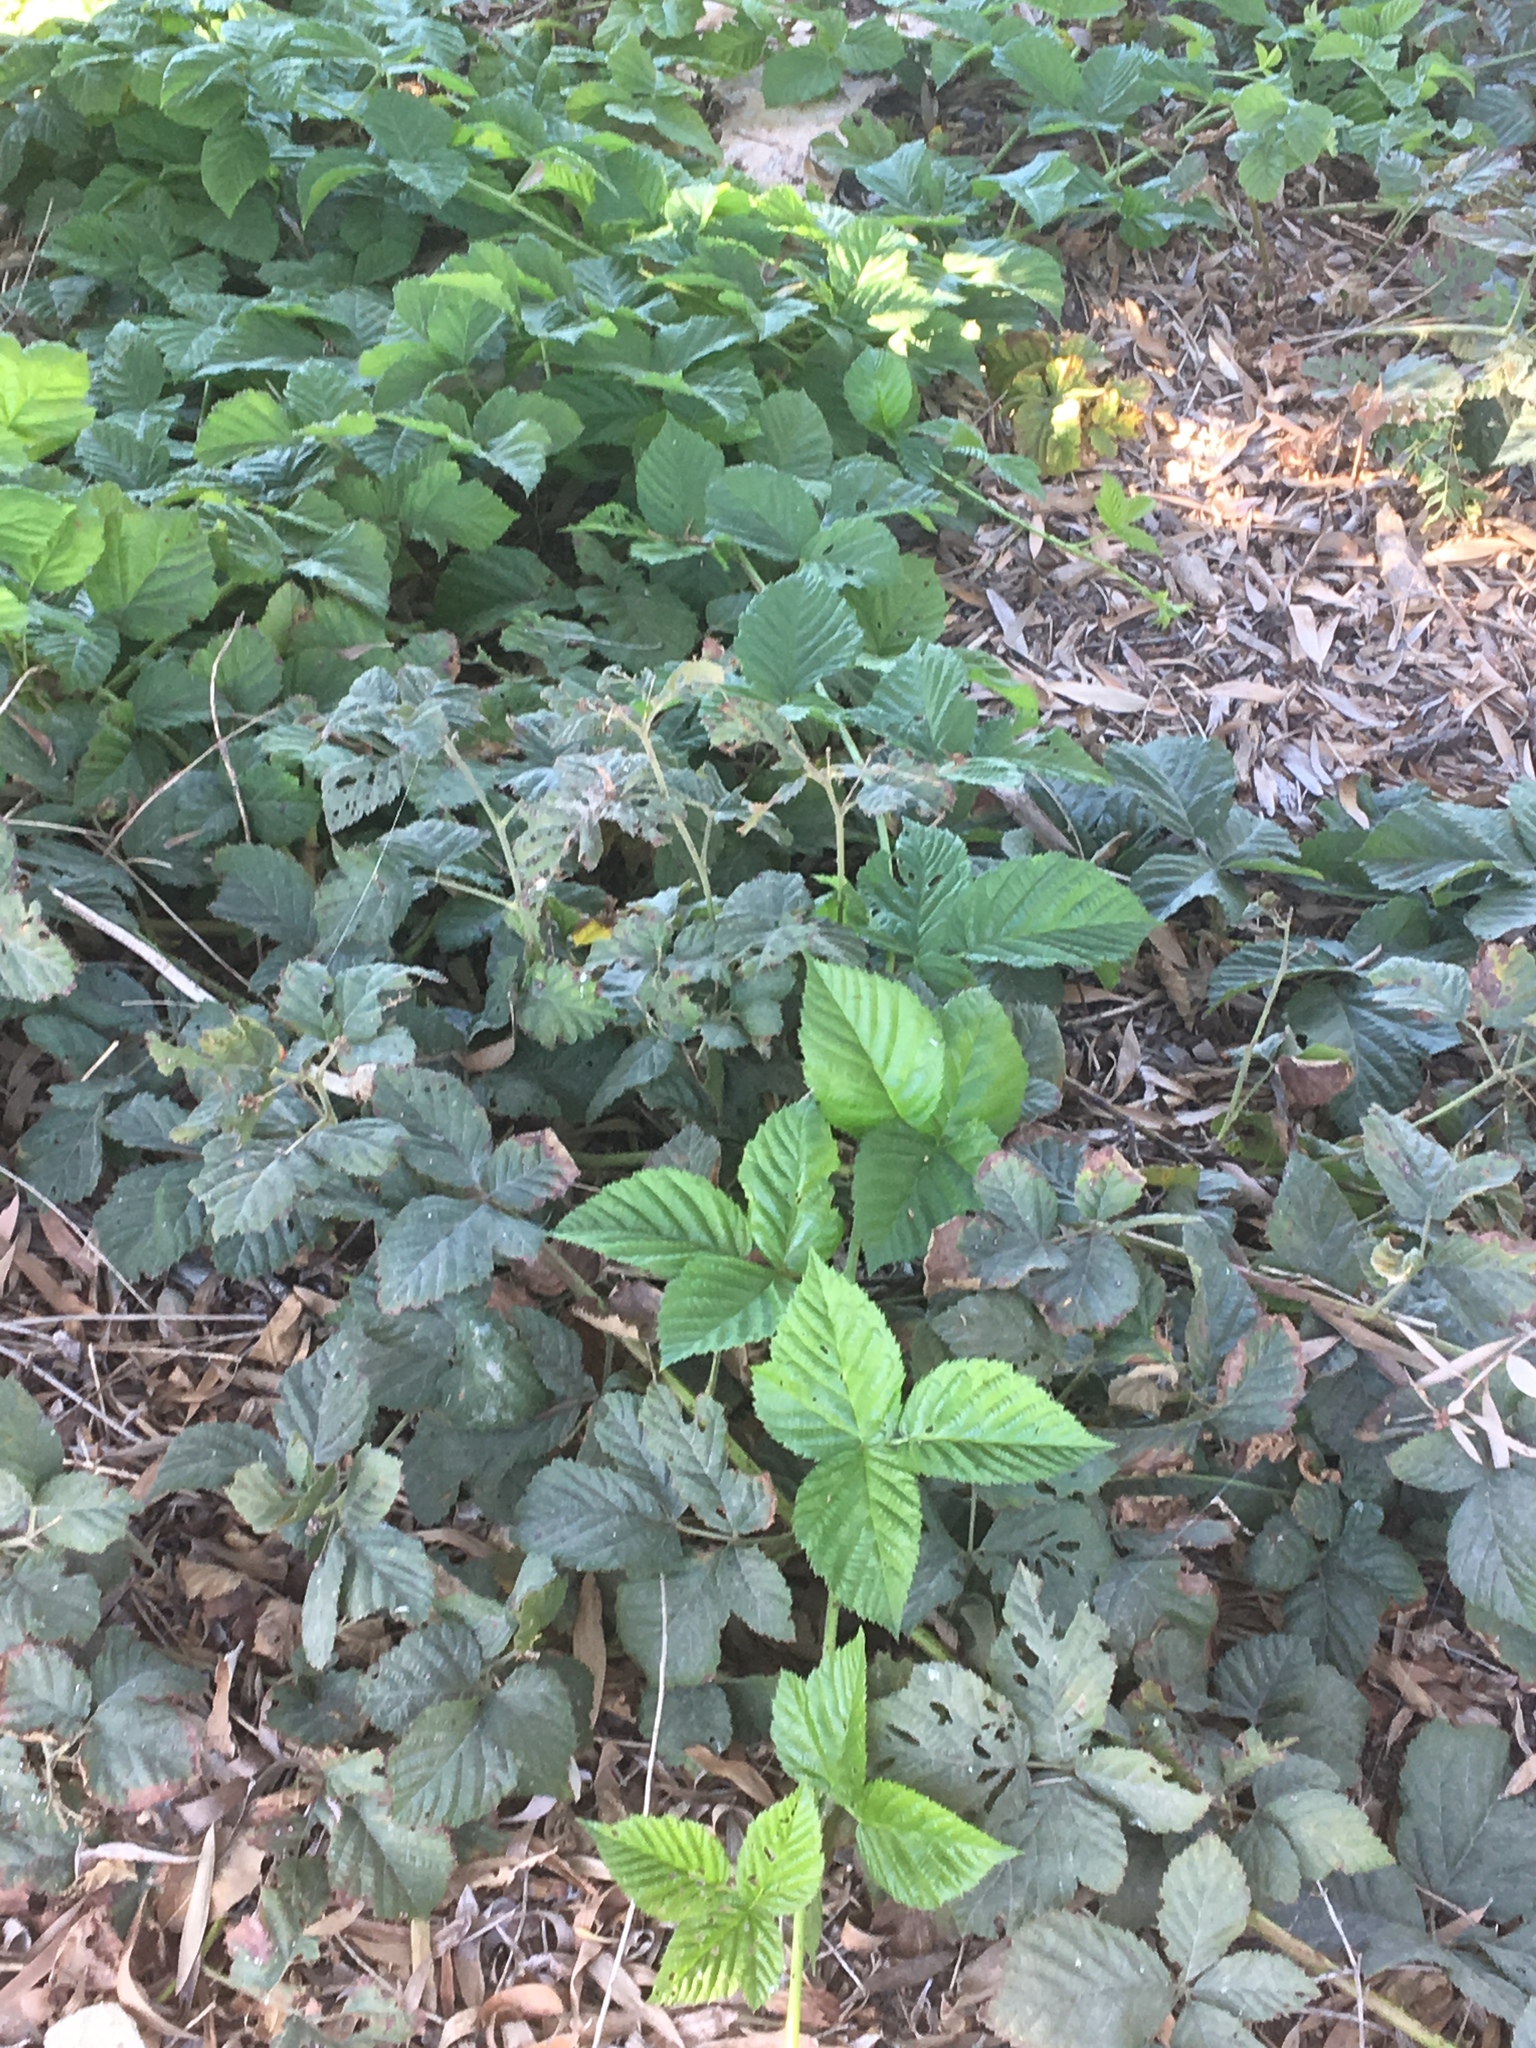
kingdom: Plantae
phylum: Tracheophyta
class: Magnoliopsida
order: Rosales
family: Rosaceae
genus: Rubus
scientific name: Rubus ursinus
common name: Pacific blackberry
